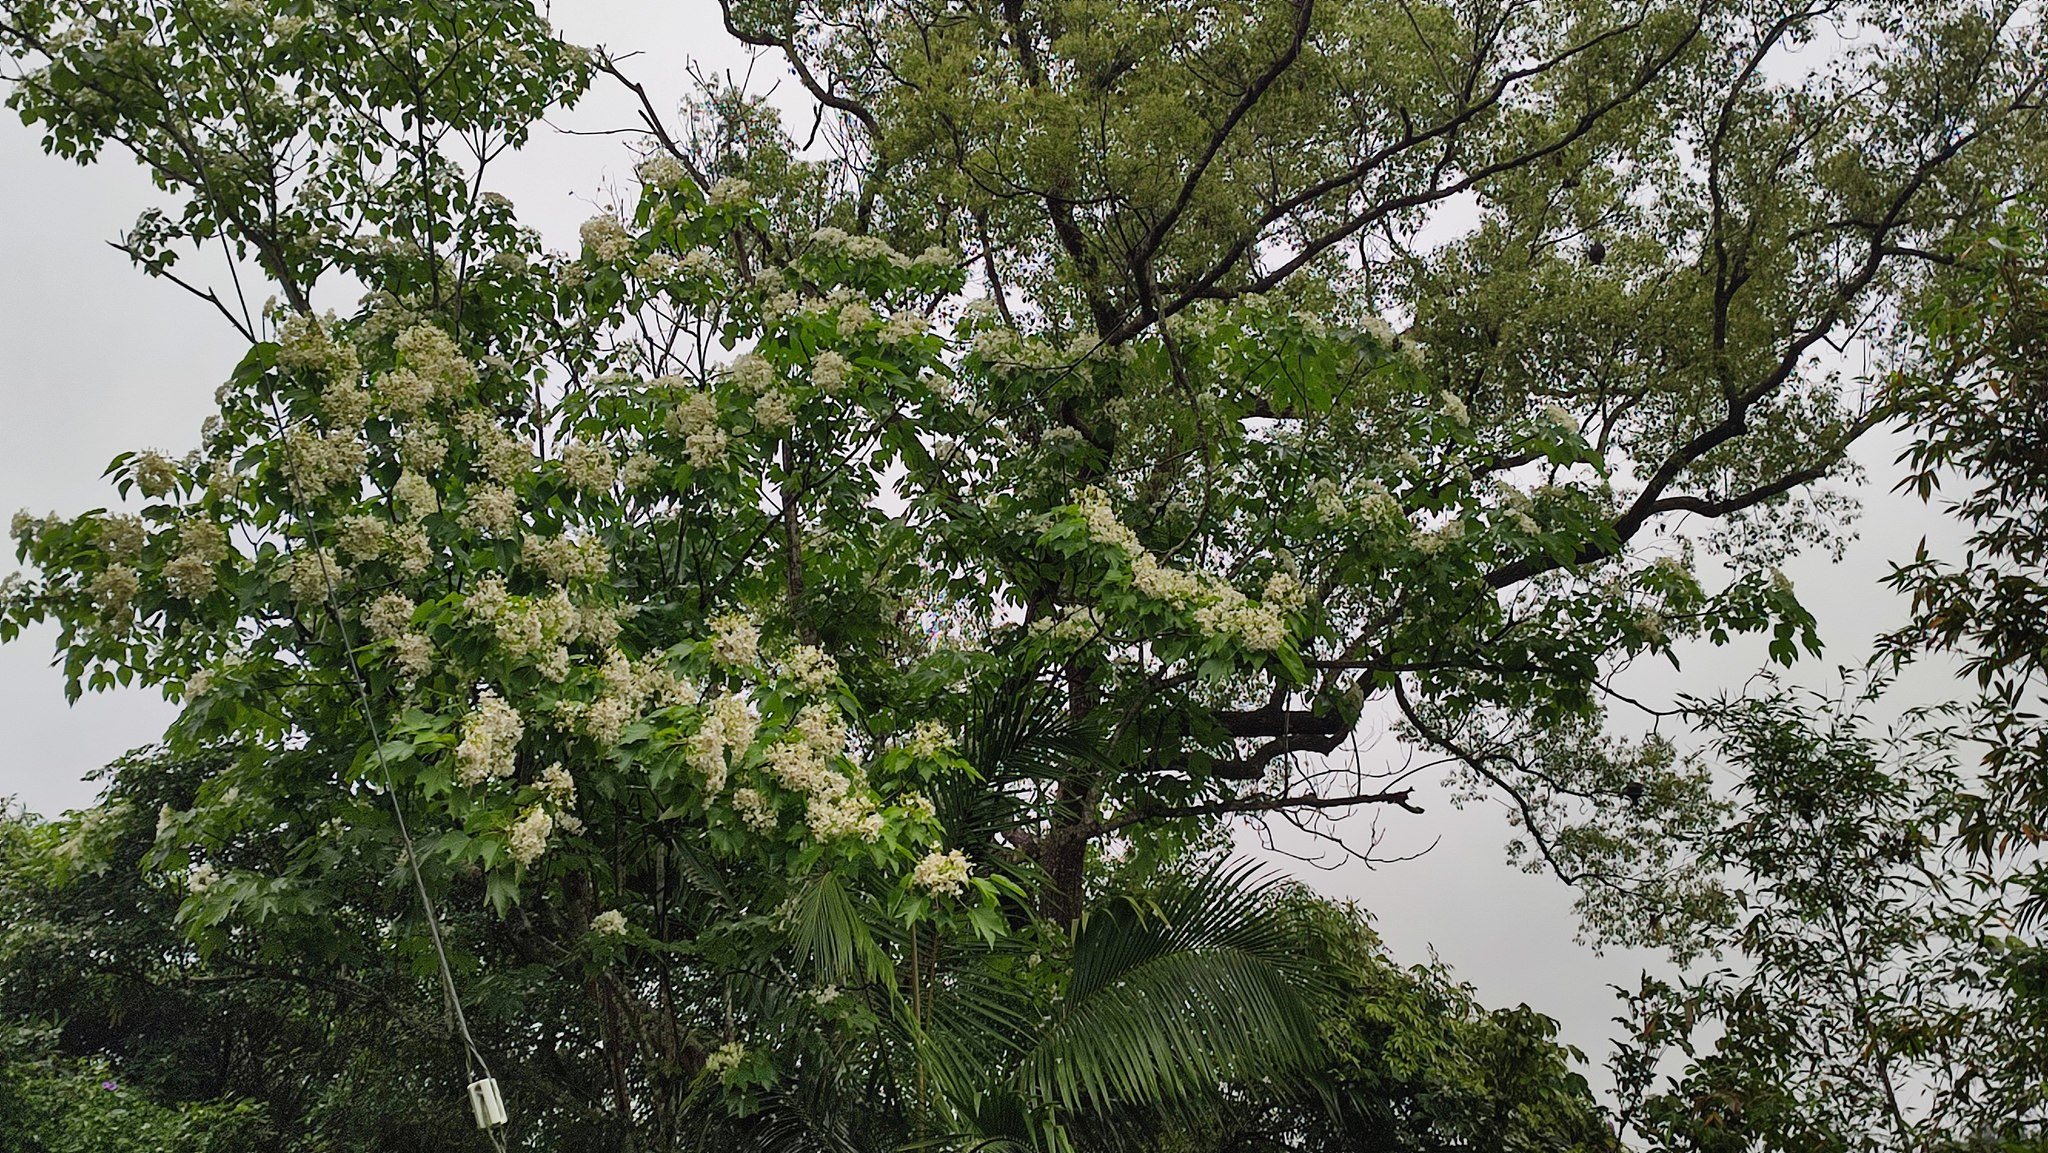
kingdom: Plantae
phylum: Tracheophyta
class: Magnoliopsida
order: Malpighiales
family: Euphorbiaceae
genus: Vernicia
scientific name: Vernicia montana
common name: Mu oil tree
